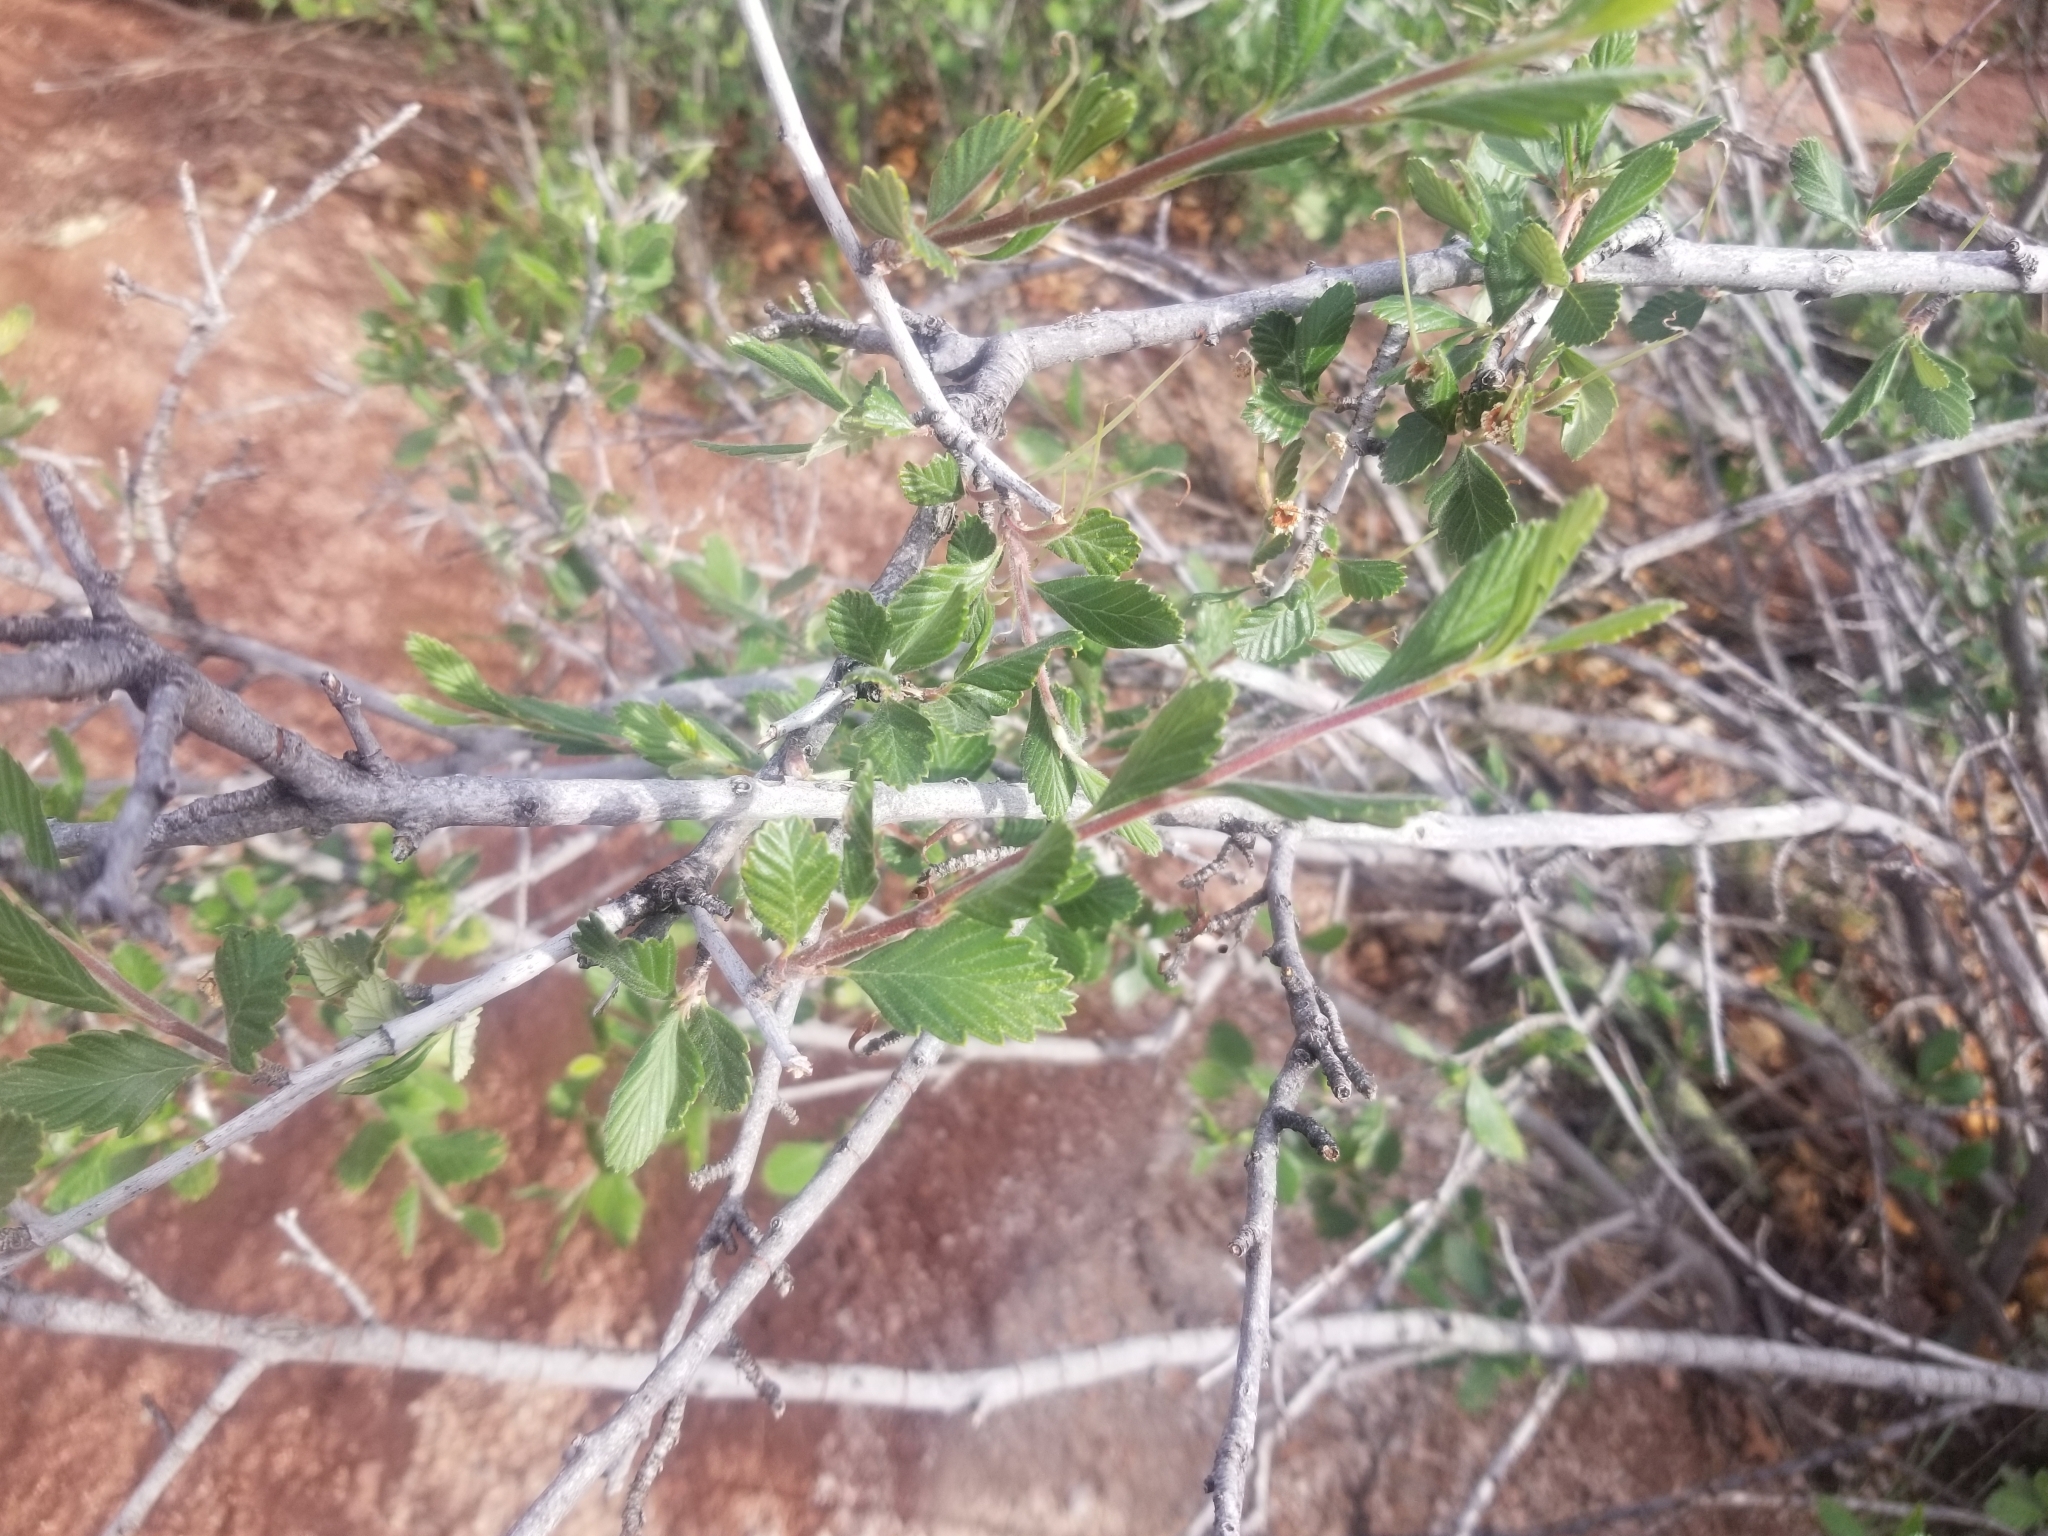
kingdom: Plantae
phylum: Tracheophyta
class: Magnoliopsida
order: Rosales
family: Rosaceae
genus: Cercocarpus
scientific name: Cercocarpus montanus
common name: Alder-leaf cercocarpus
